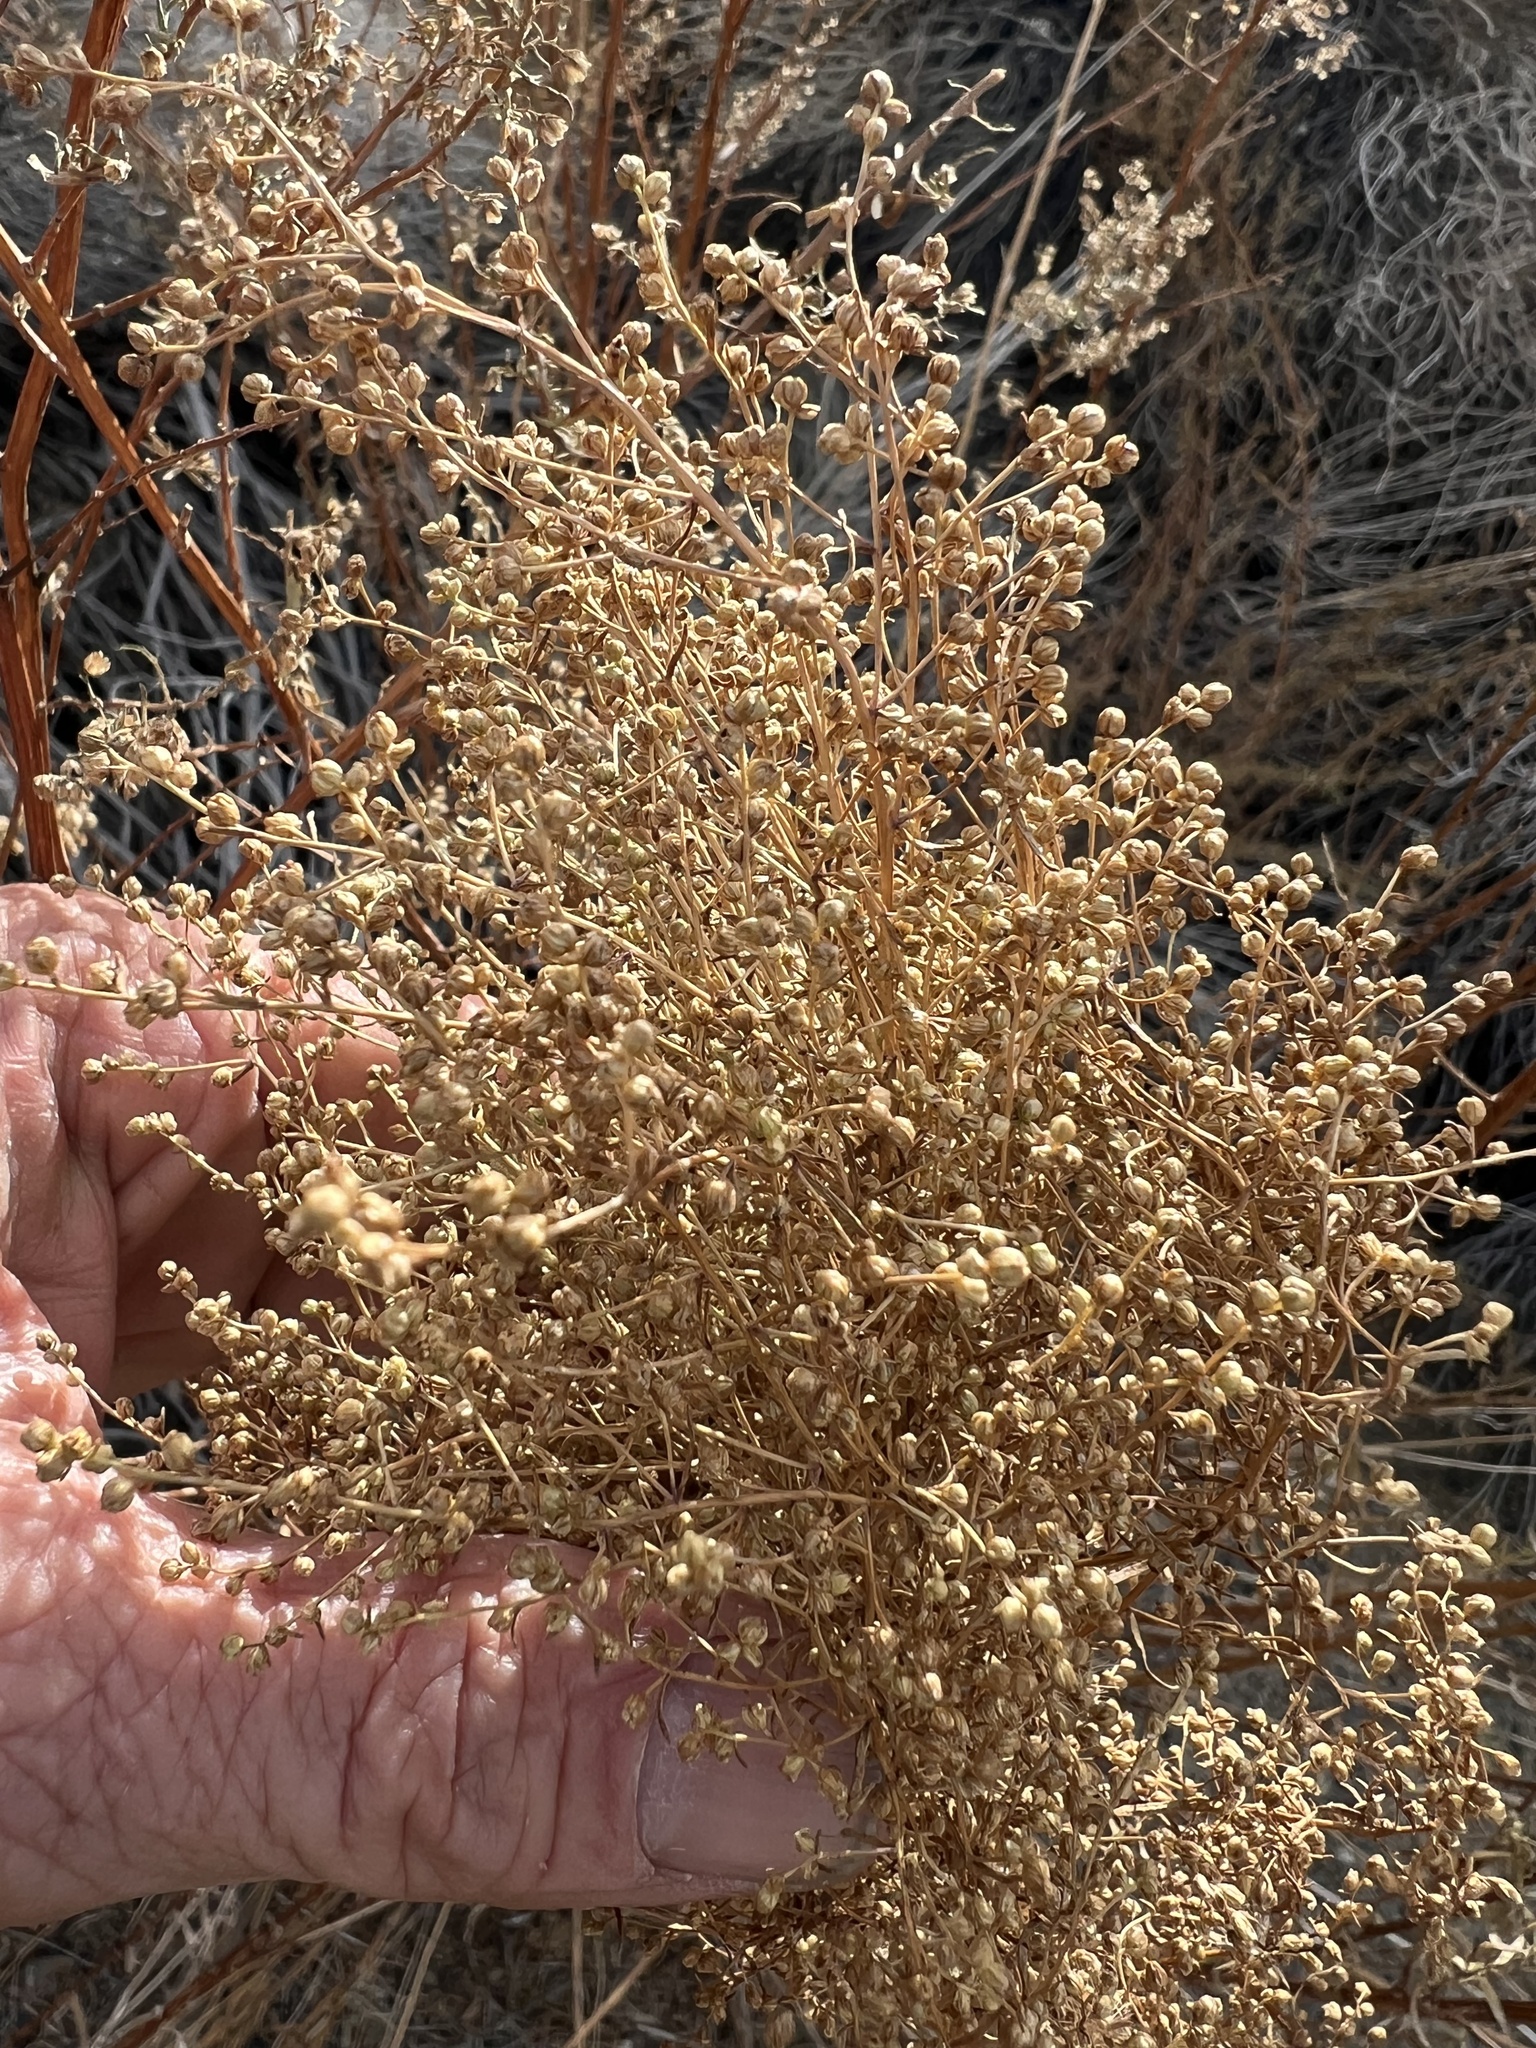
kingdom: Plantae
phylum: Tracheophyta
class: Magnoliopsida
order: Asterales
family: Asteraceae
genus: Artemisia
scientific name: Artemisia dracunculus
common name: Tarragon
